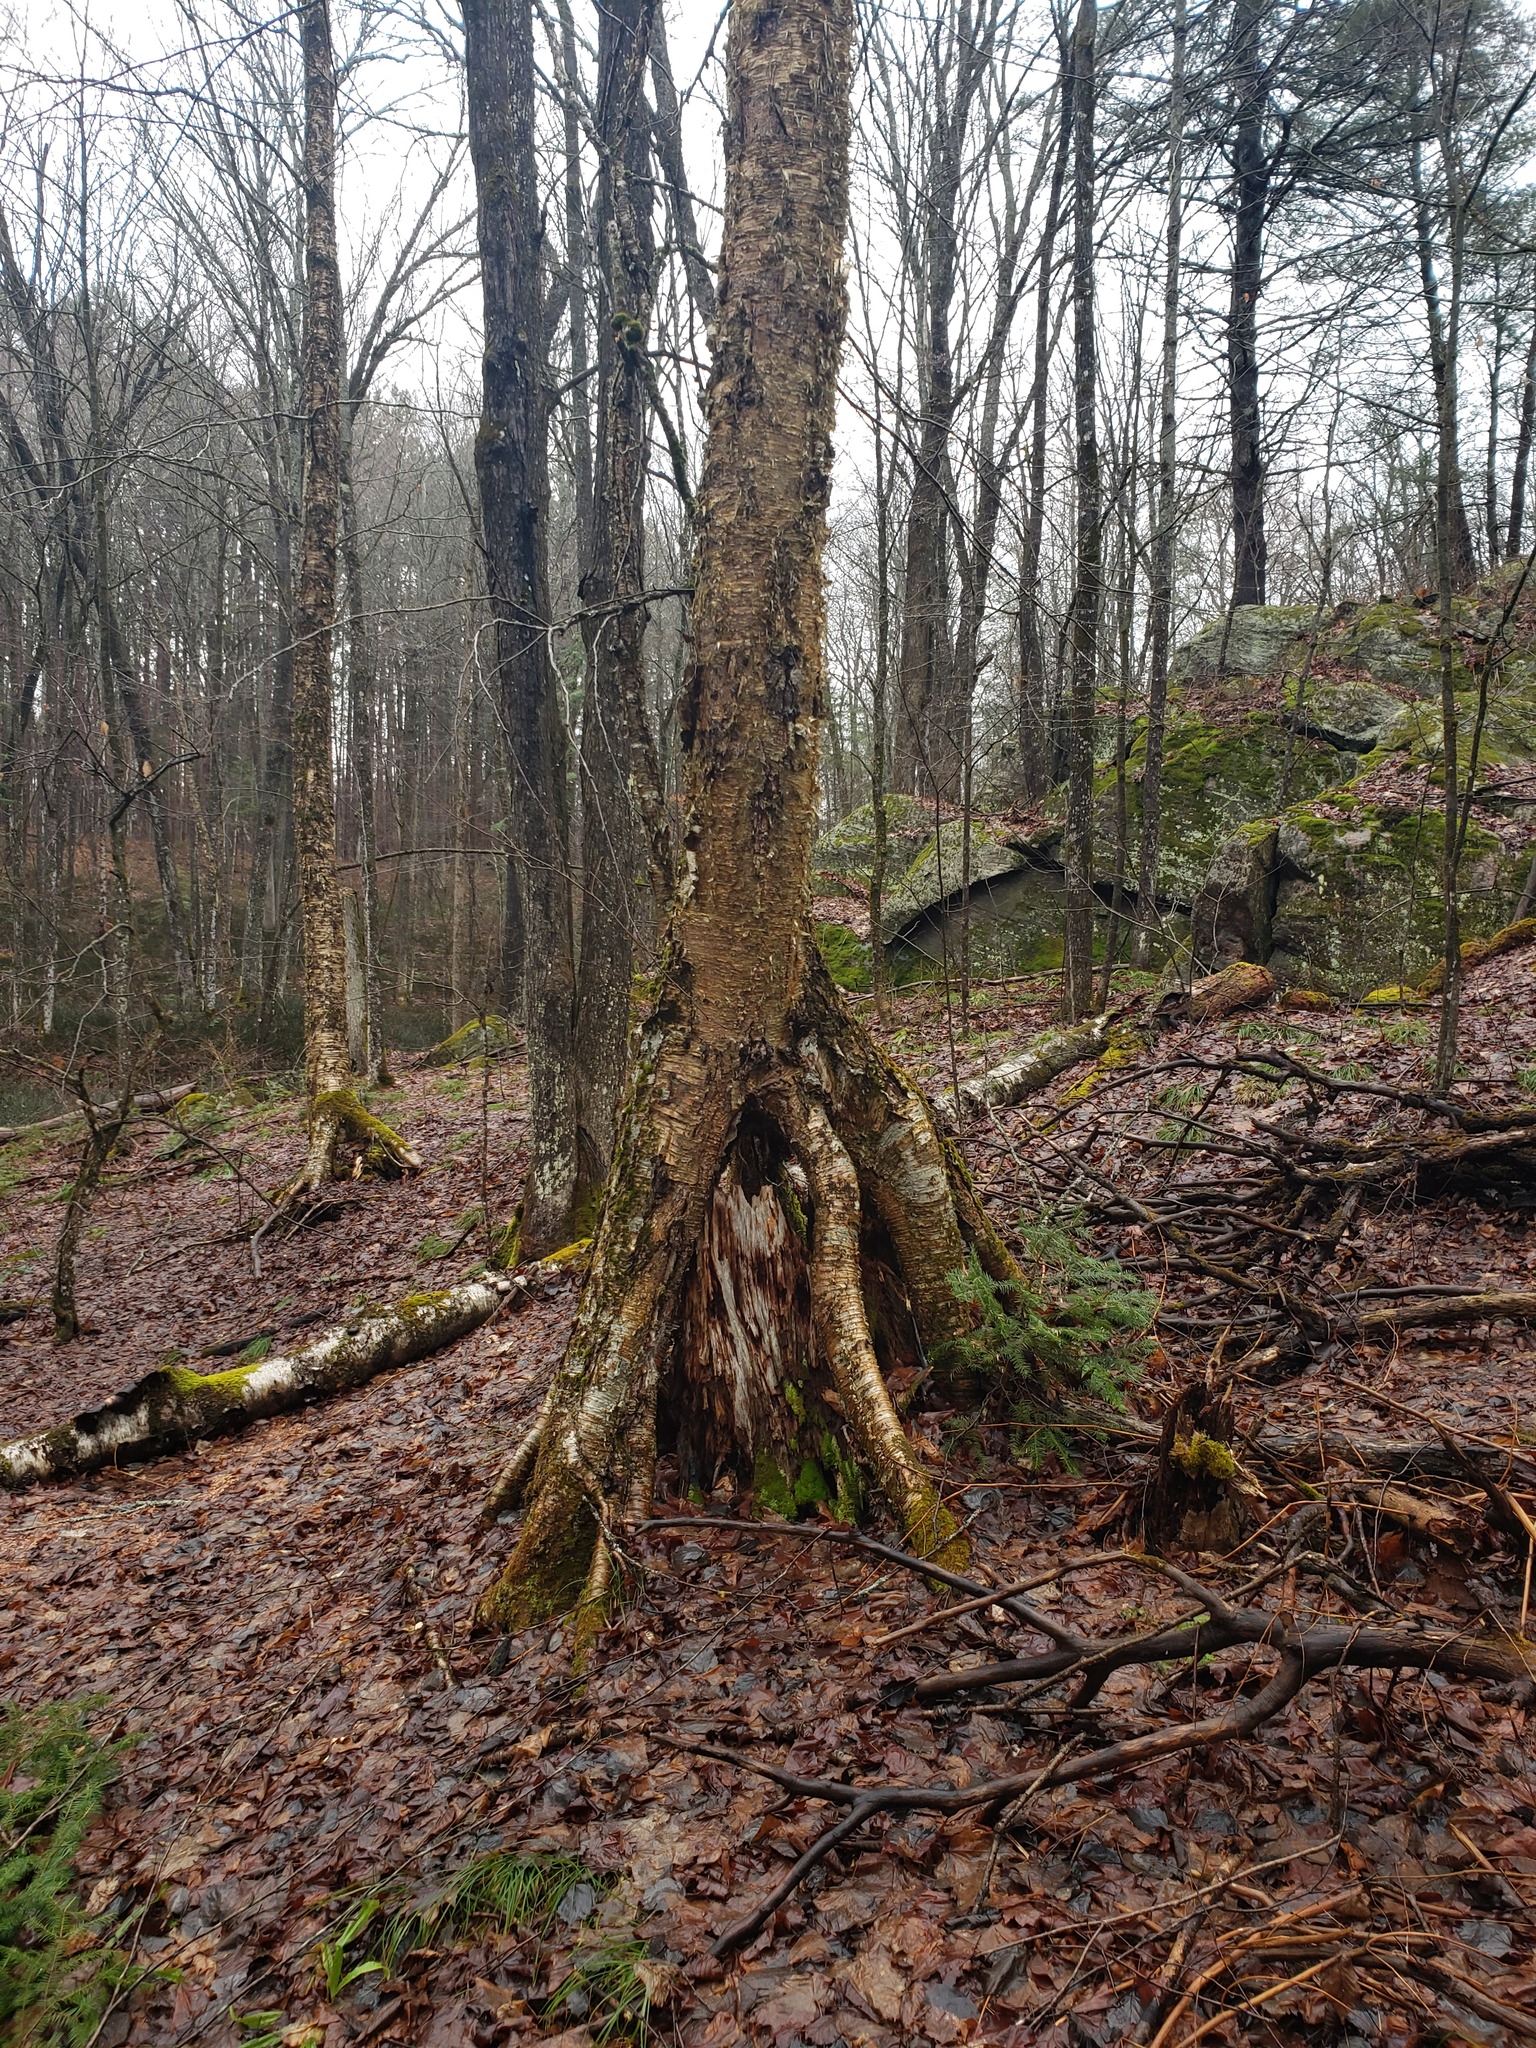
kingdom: Plantae
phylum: Tracheophyta
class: Magnoliopsida
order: Fagales
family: Betulaceae
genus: Betula
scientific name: Betula alleghaniensis
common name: Yellow birch
